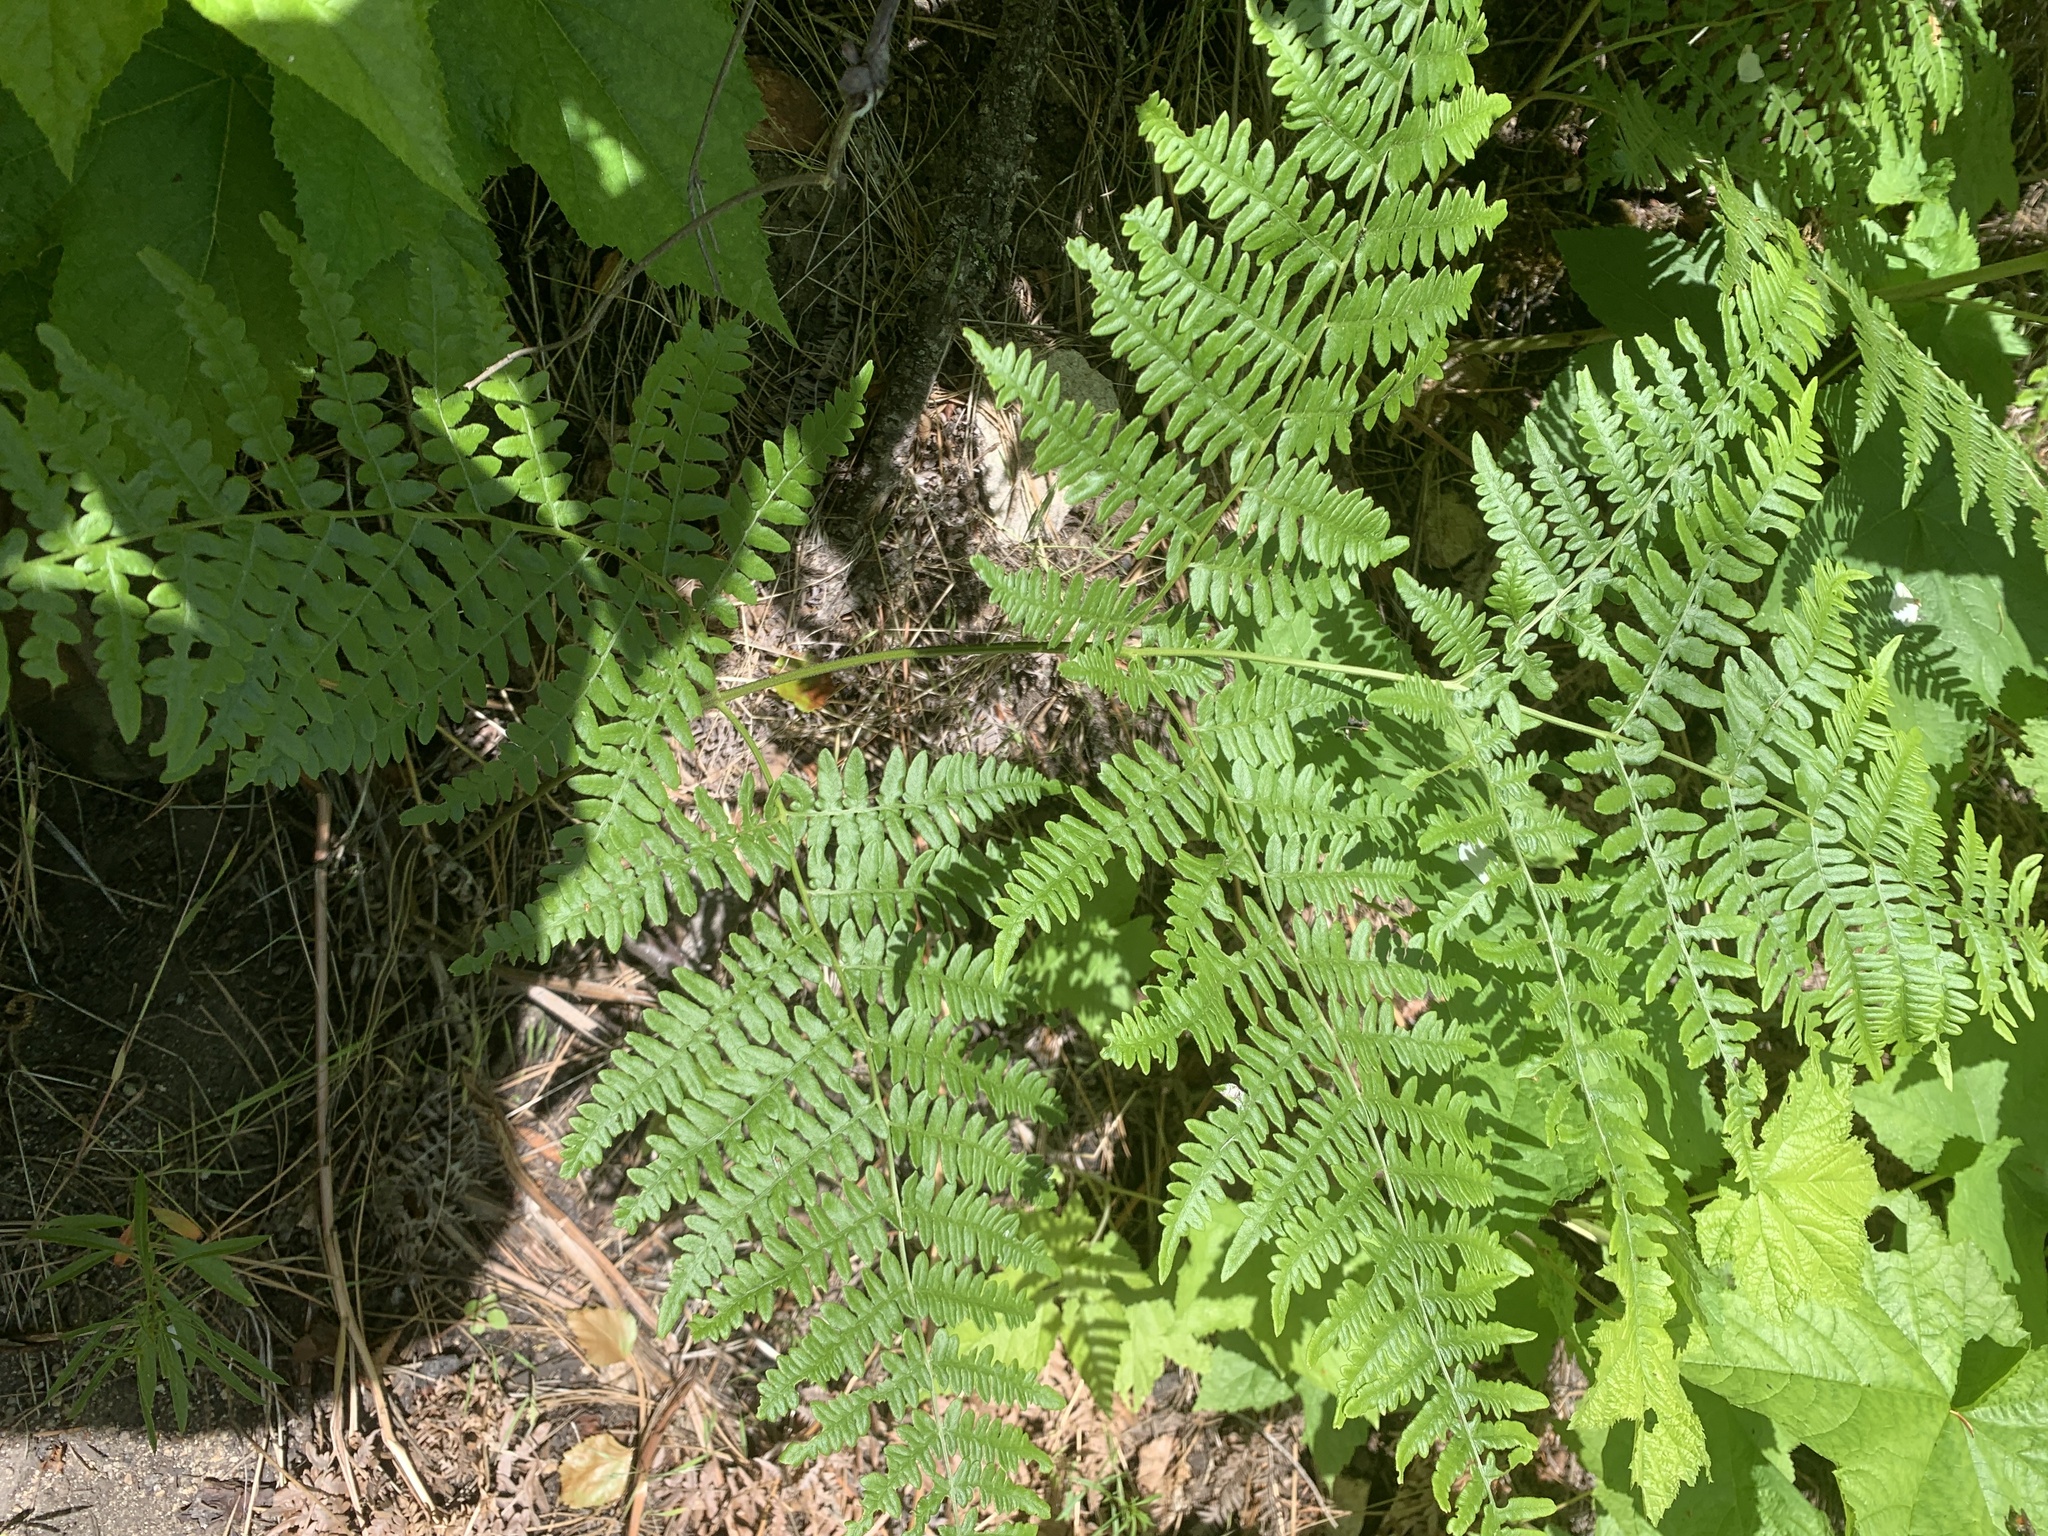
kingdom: Plantae
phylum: Tracheophyta
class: Polypodiopsida
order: Polypodiales
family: Dennstaedtiaceae
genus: Pteridium
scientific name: Pteridium aquilinum
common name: Bracken
